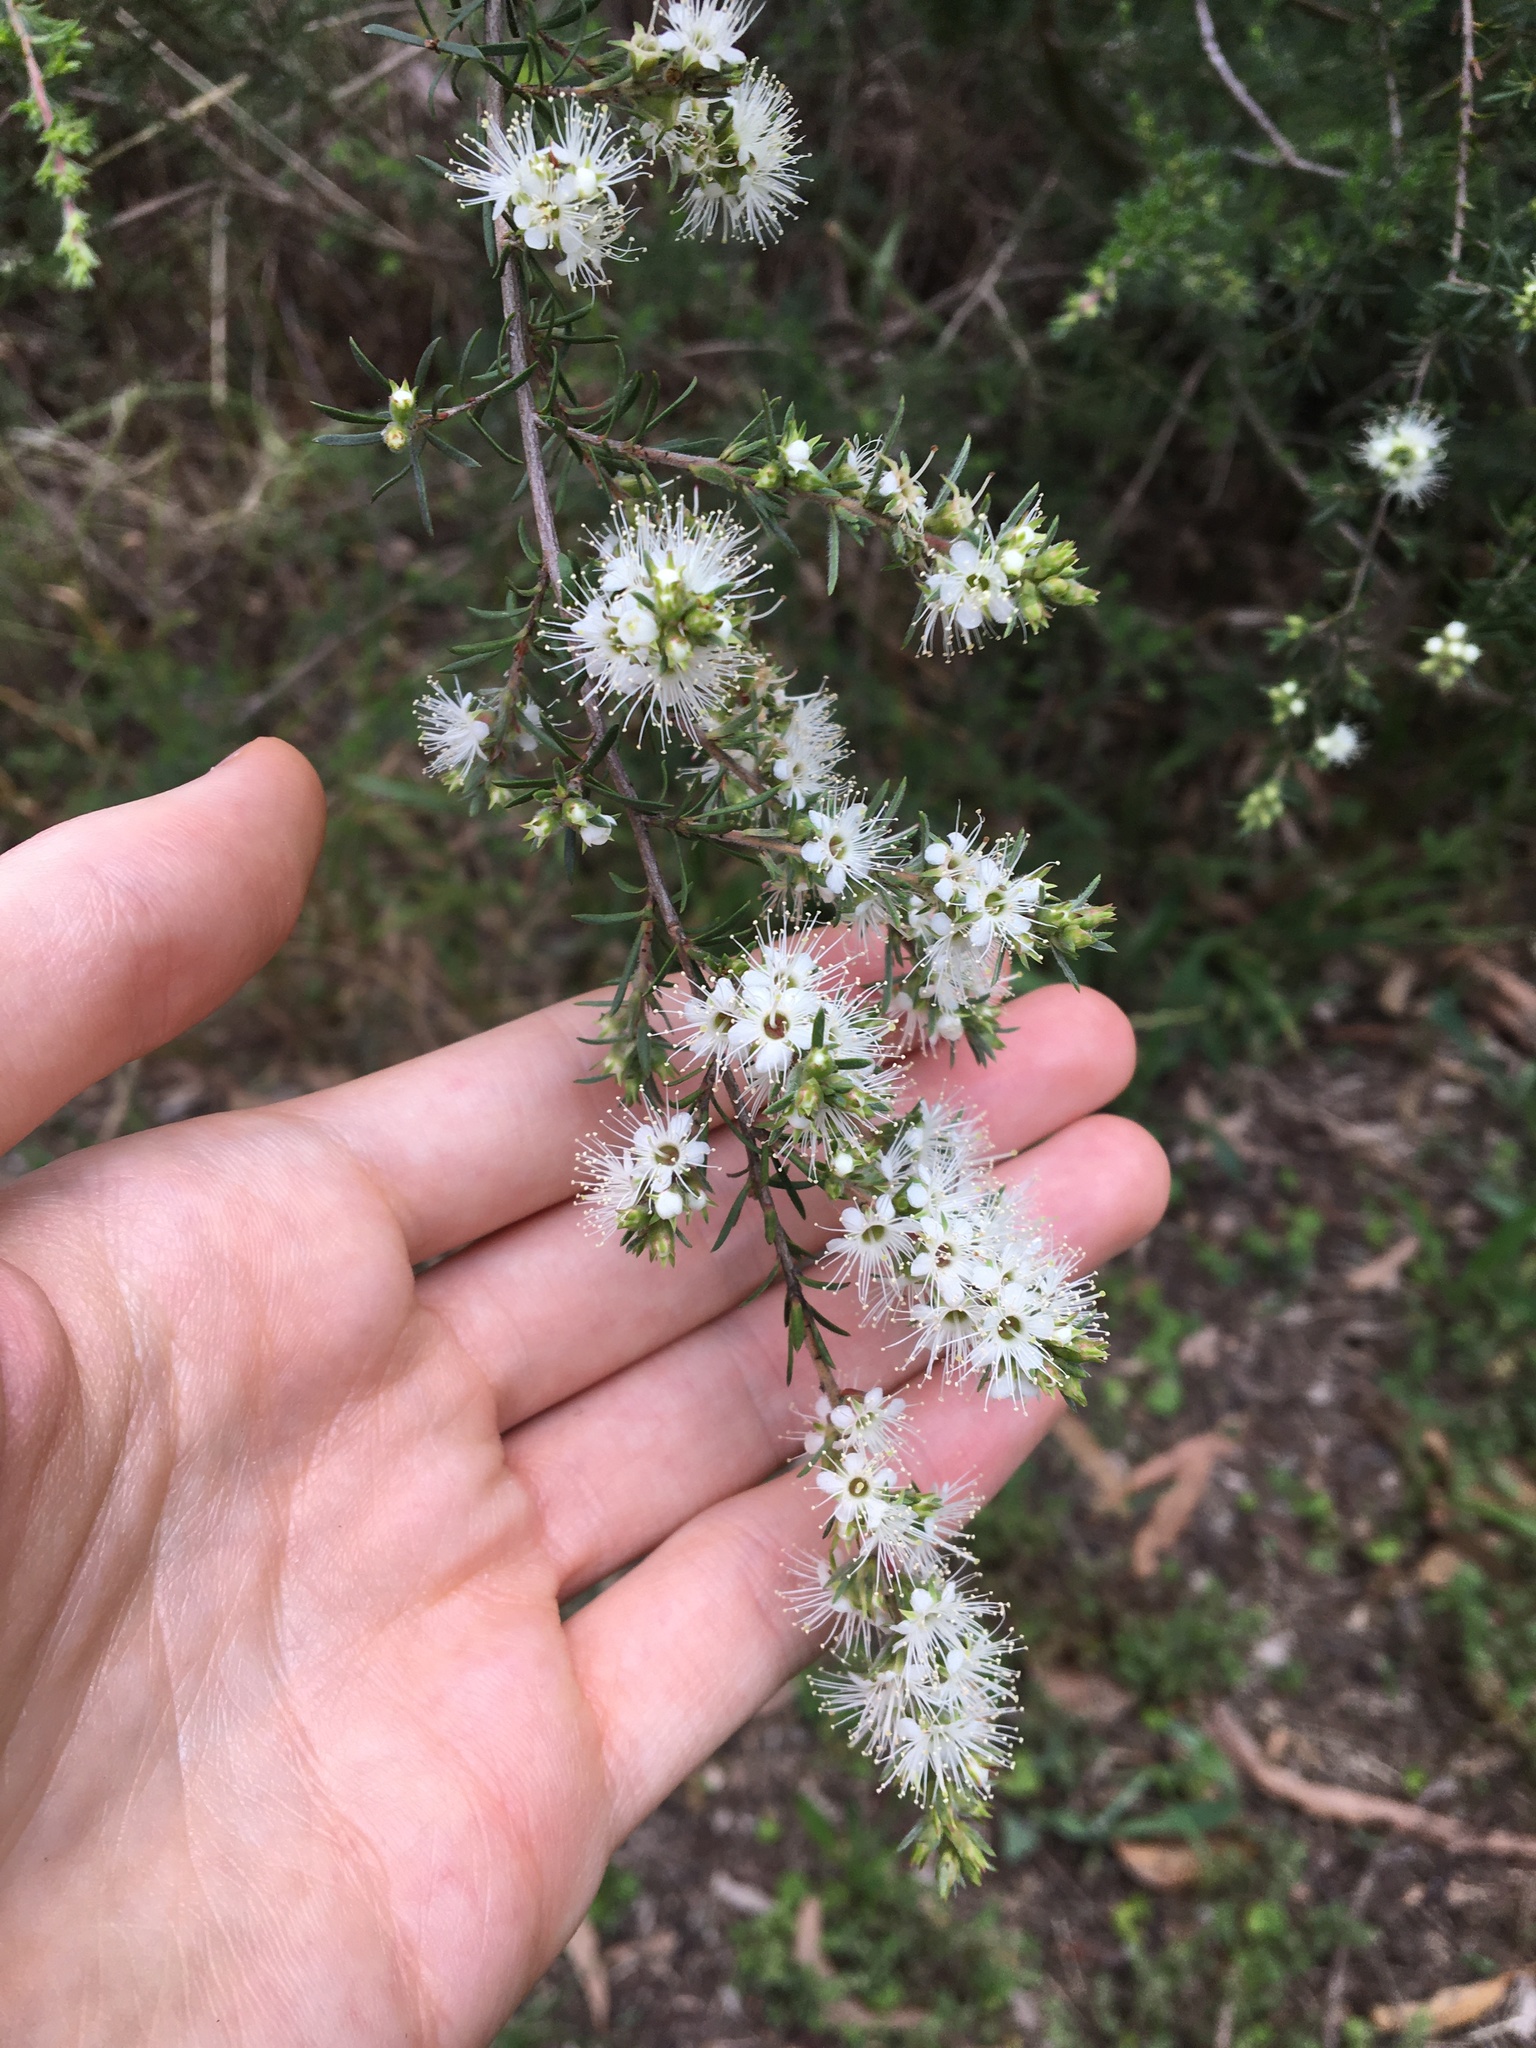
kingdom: Plantae
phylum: Tracheophyta
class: Magnoliopsida
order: Myrtales
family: Myrtaceae
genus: Kunzea
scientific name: Kunzea ambigua
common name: Tickbush
